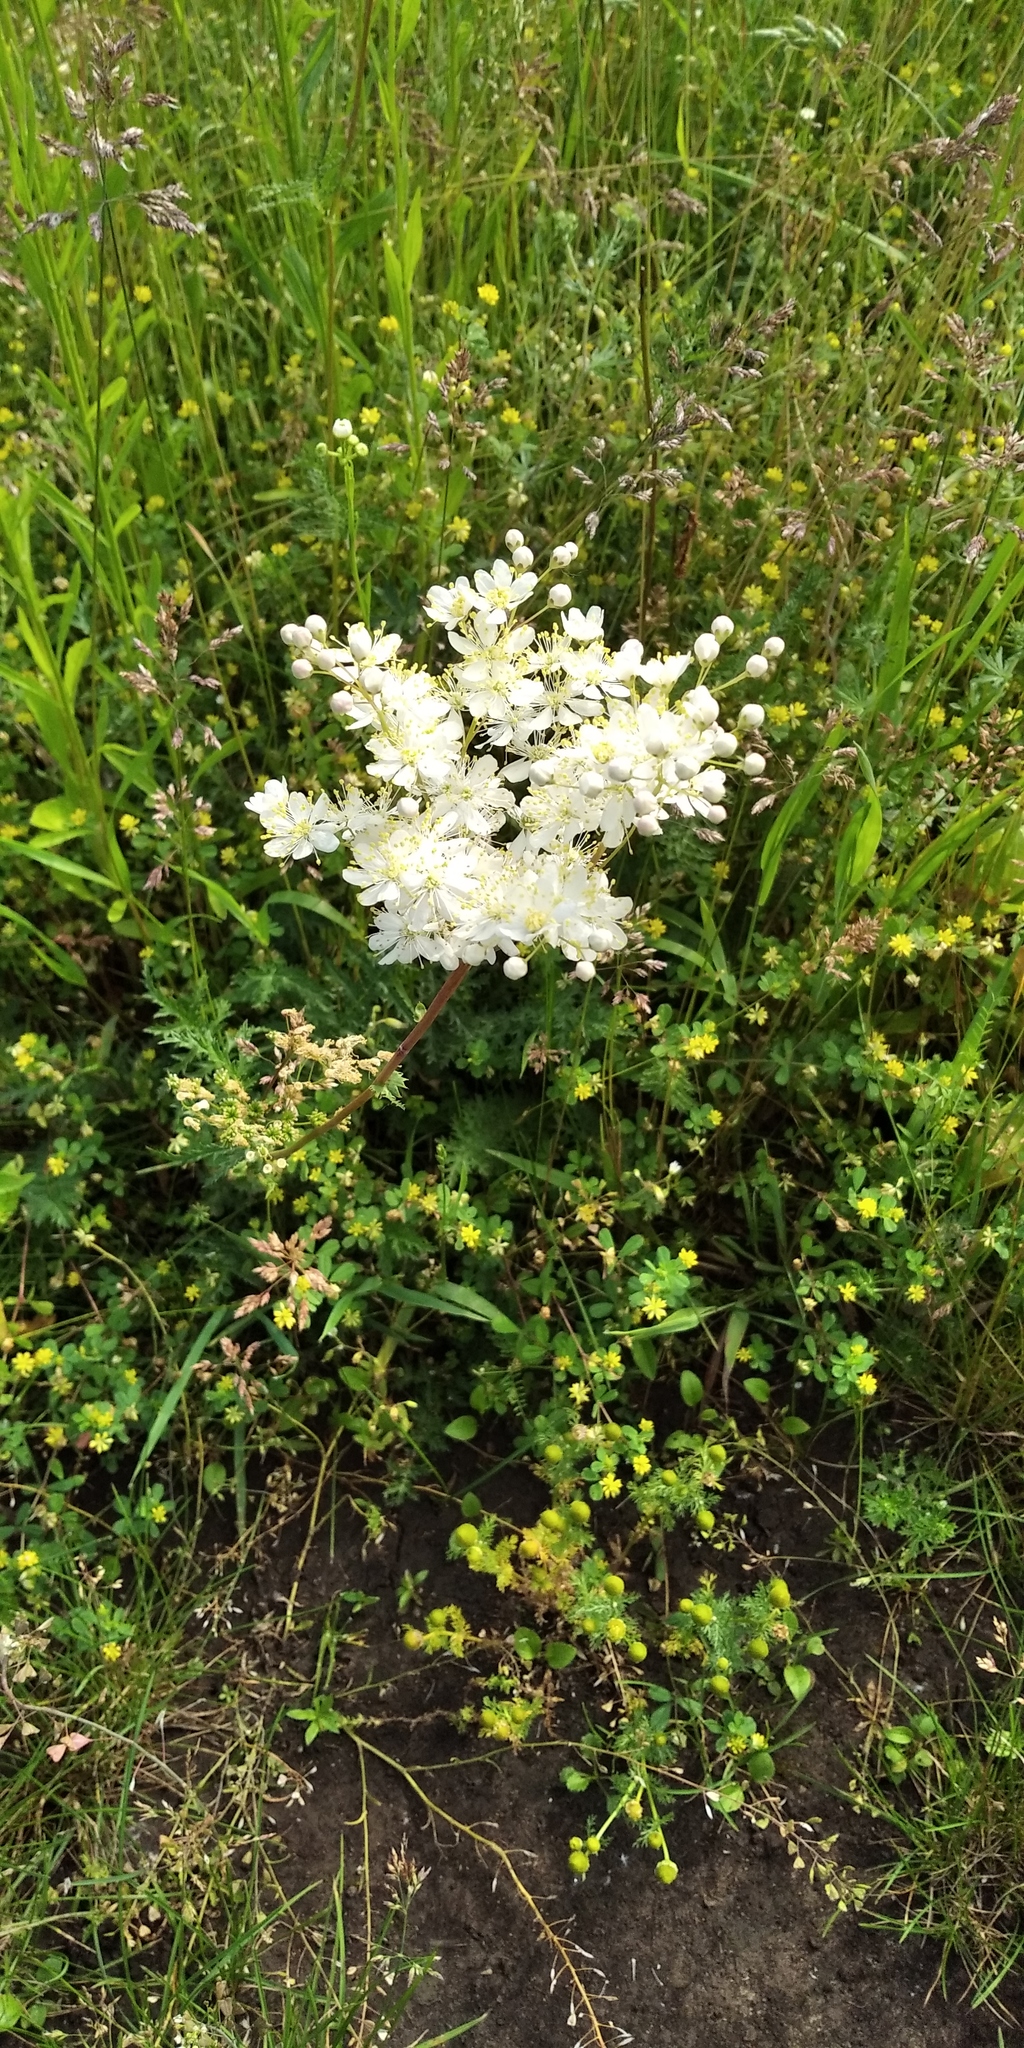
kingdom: Plantae
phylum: Tracheophyta
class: Magnoliopsida
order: Rosales
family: Rosaceae
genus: Filipendula
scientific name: Filipendula vulgaris
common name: Dropwort
